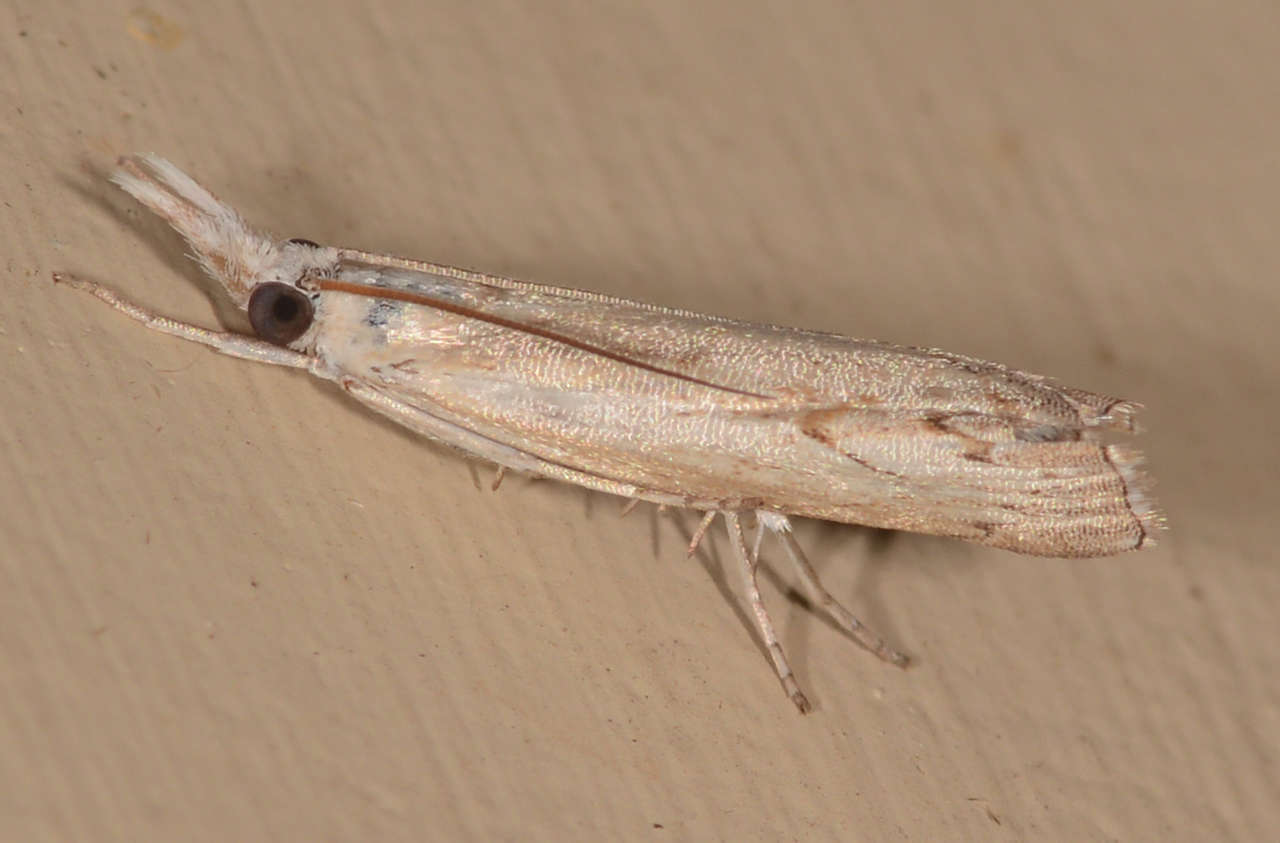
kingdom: Animalia
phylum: Arthropoda
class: Insecta
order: Lepidoptera
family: Crambidae
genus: Culladia
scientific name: Culladia cuneiferellus
